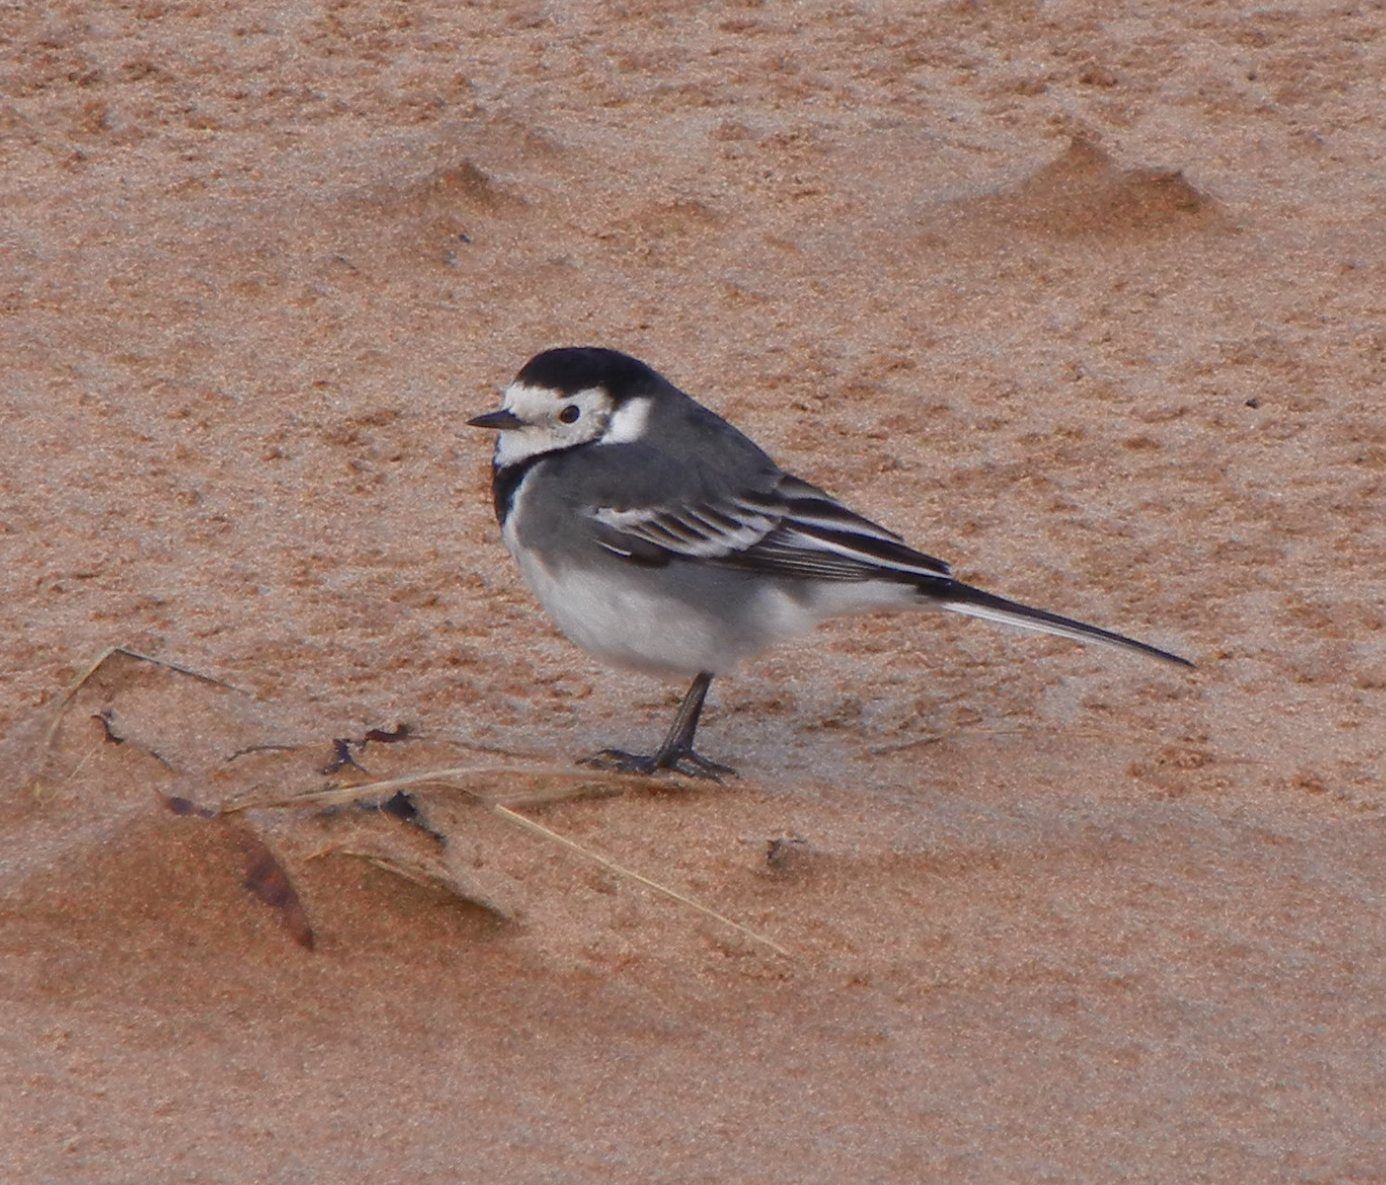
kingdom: Animalia
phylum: Chordata
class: Aves
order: Passeriformes
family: Motacillidae
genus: Motacilla
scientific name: Motacilla alba
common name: White wagtail
